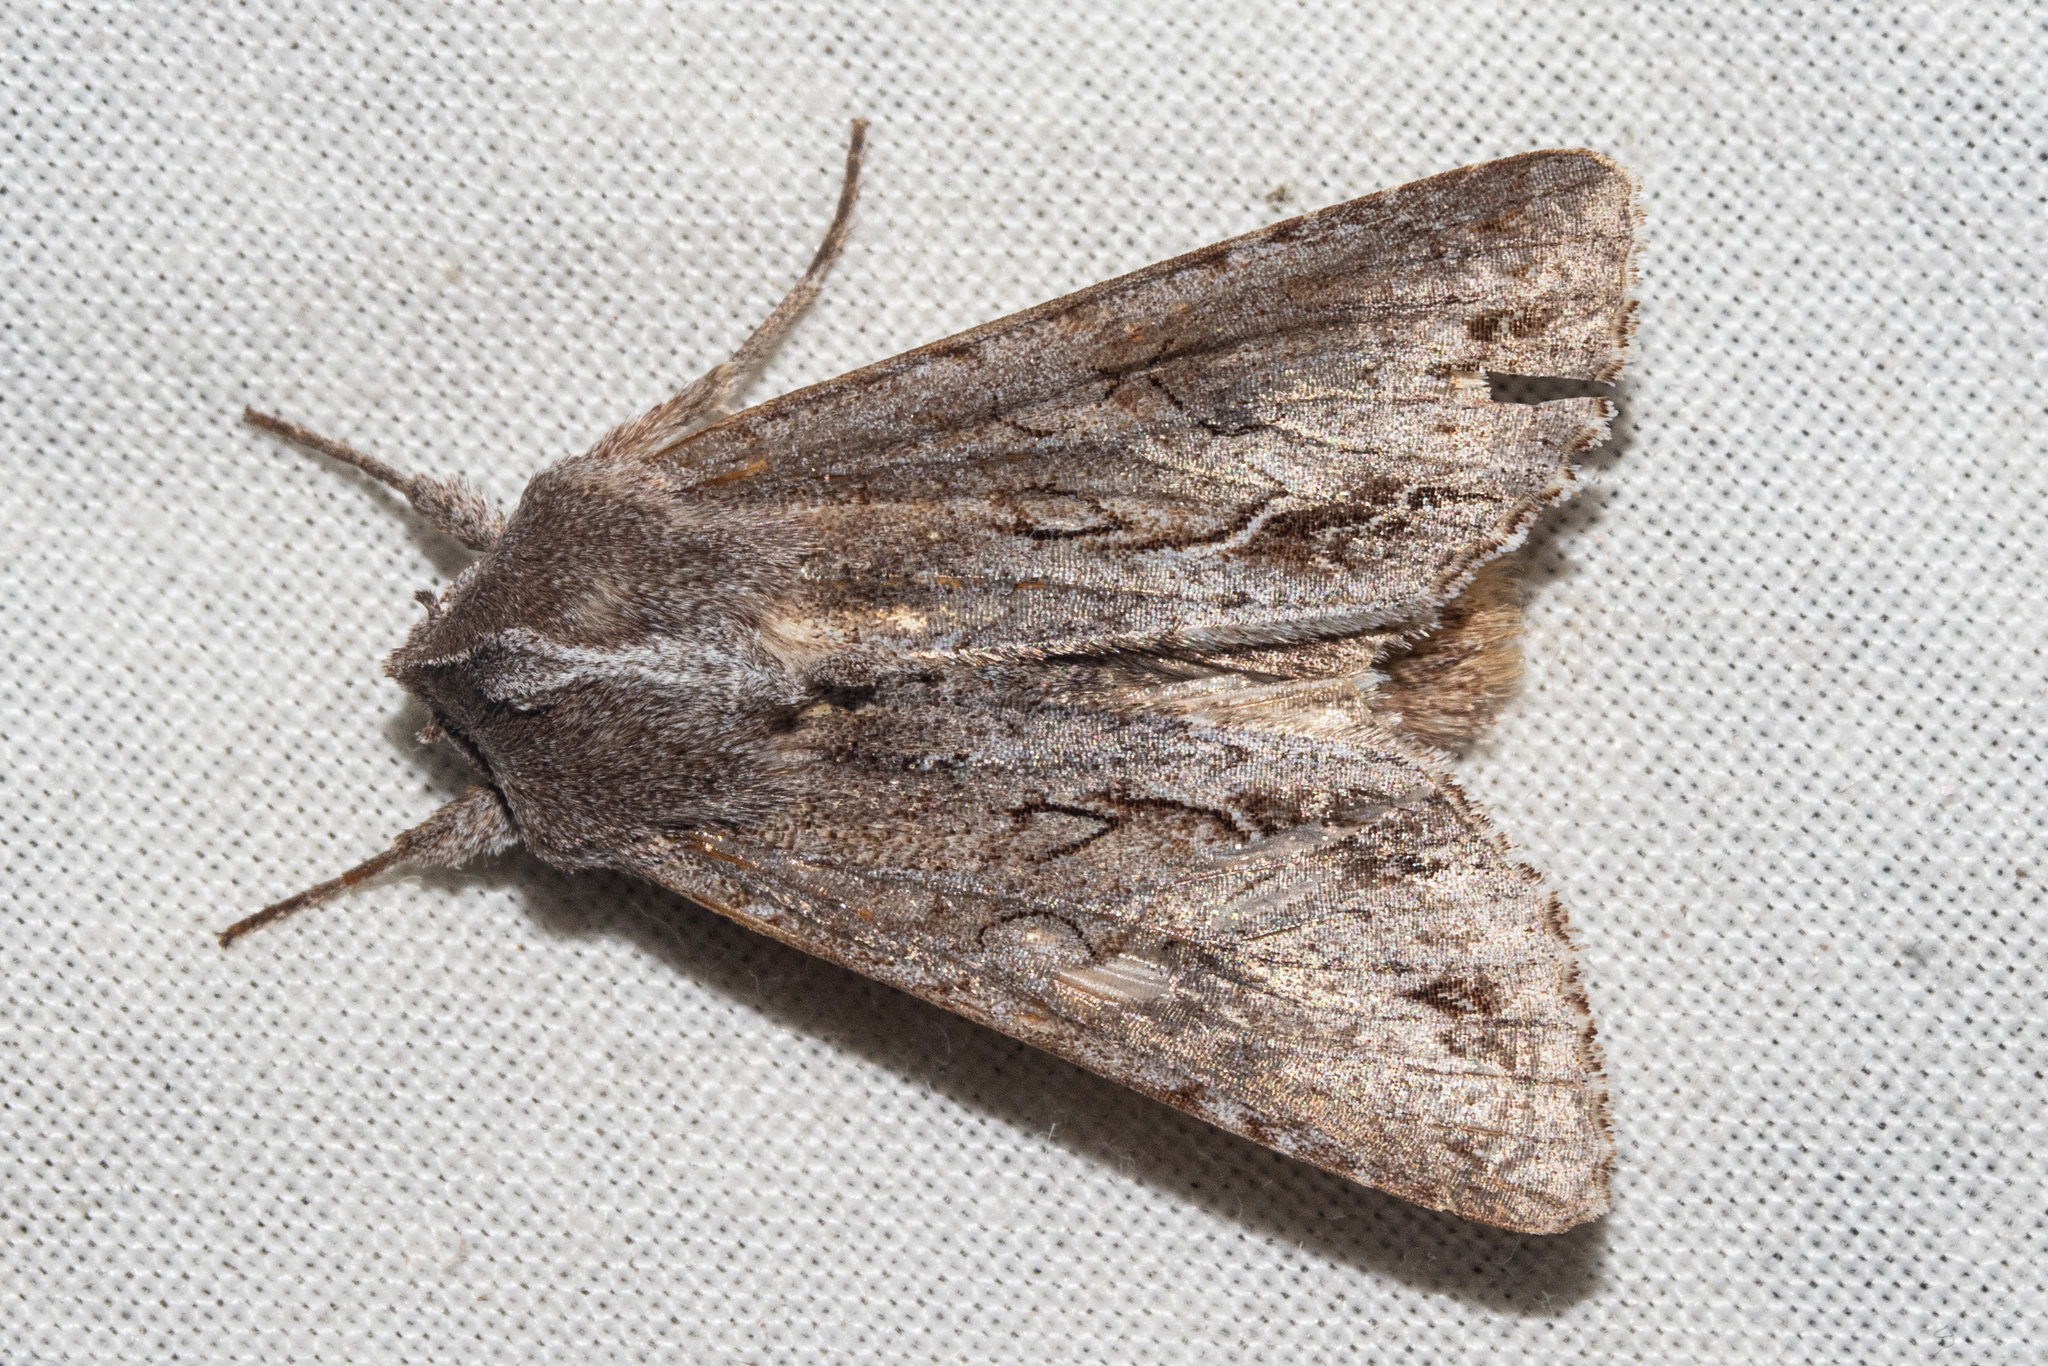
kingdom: Animalia
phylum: Arthropoda
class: Insecta
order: Lepidoptera
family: Noctuidae
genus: Ichneutica
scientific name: Ichneutica
